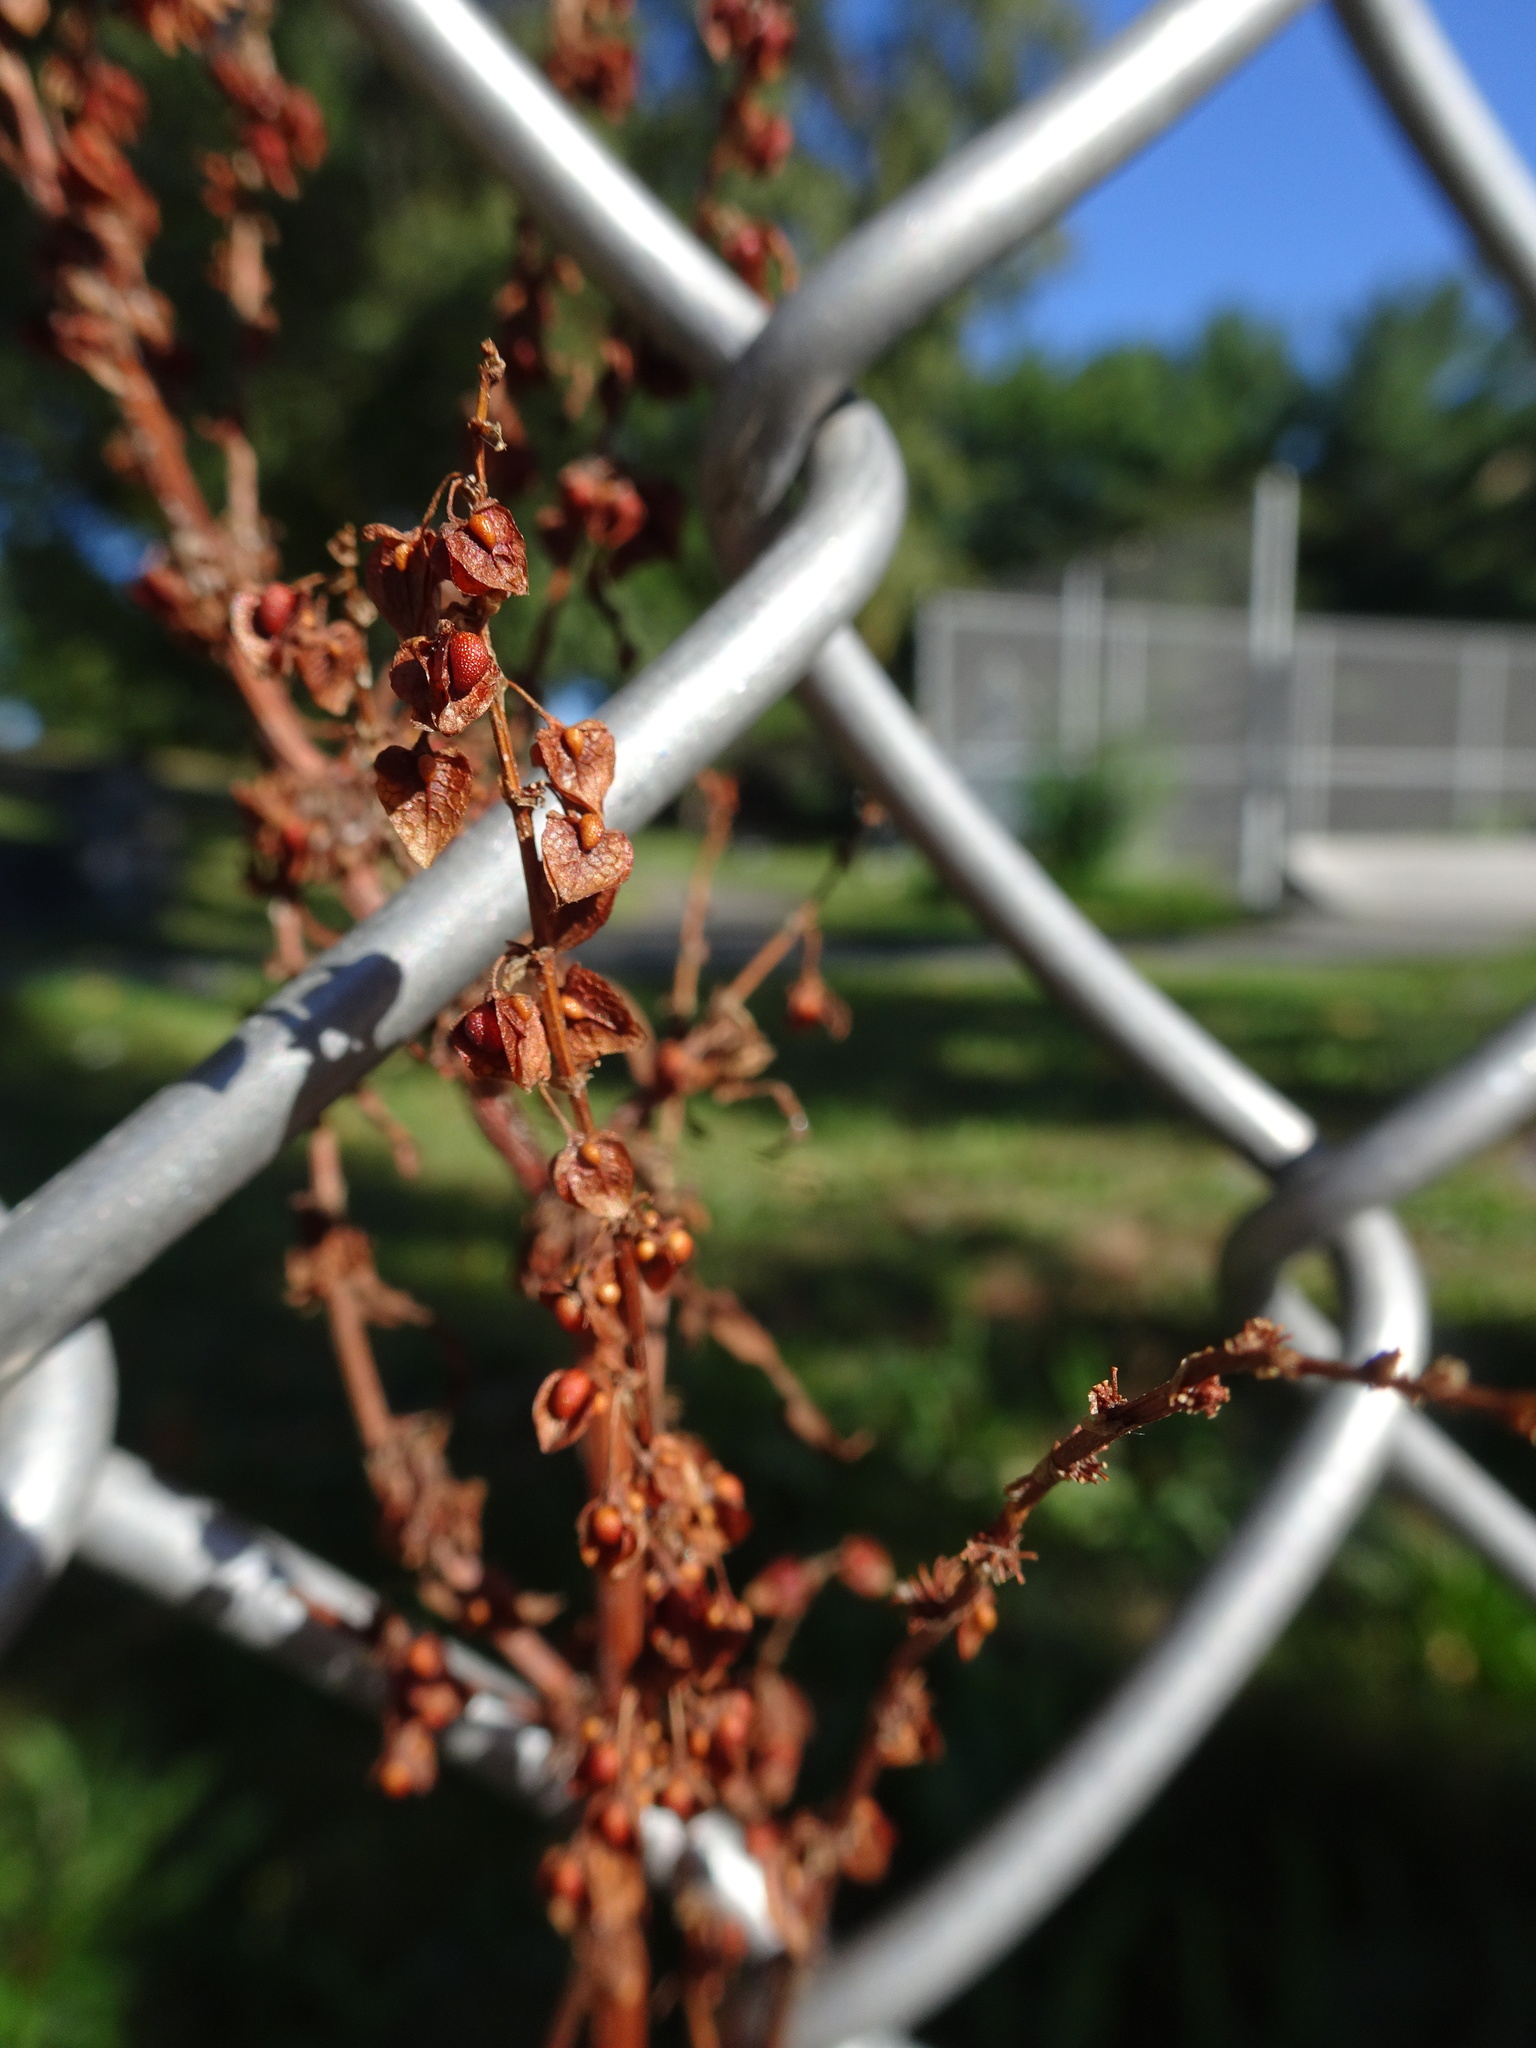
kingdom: Plantae
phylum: Tracheophyta
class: Magnoliopsida
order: Caryophyllales
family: Polygonaceae
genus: Rumex
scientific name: Rumex crispus
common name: Curled dock
